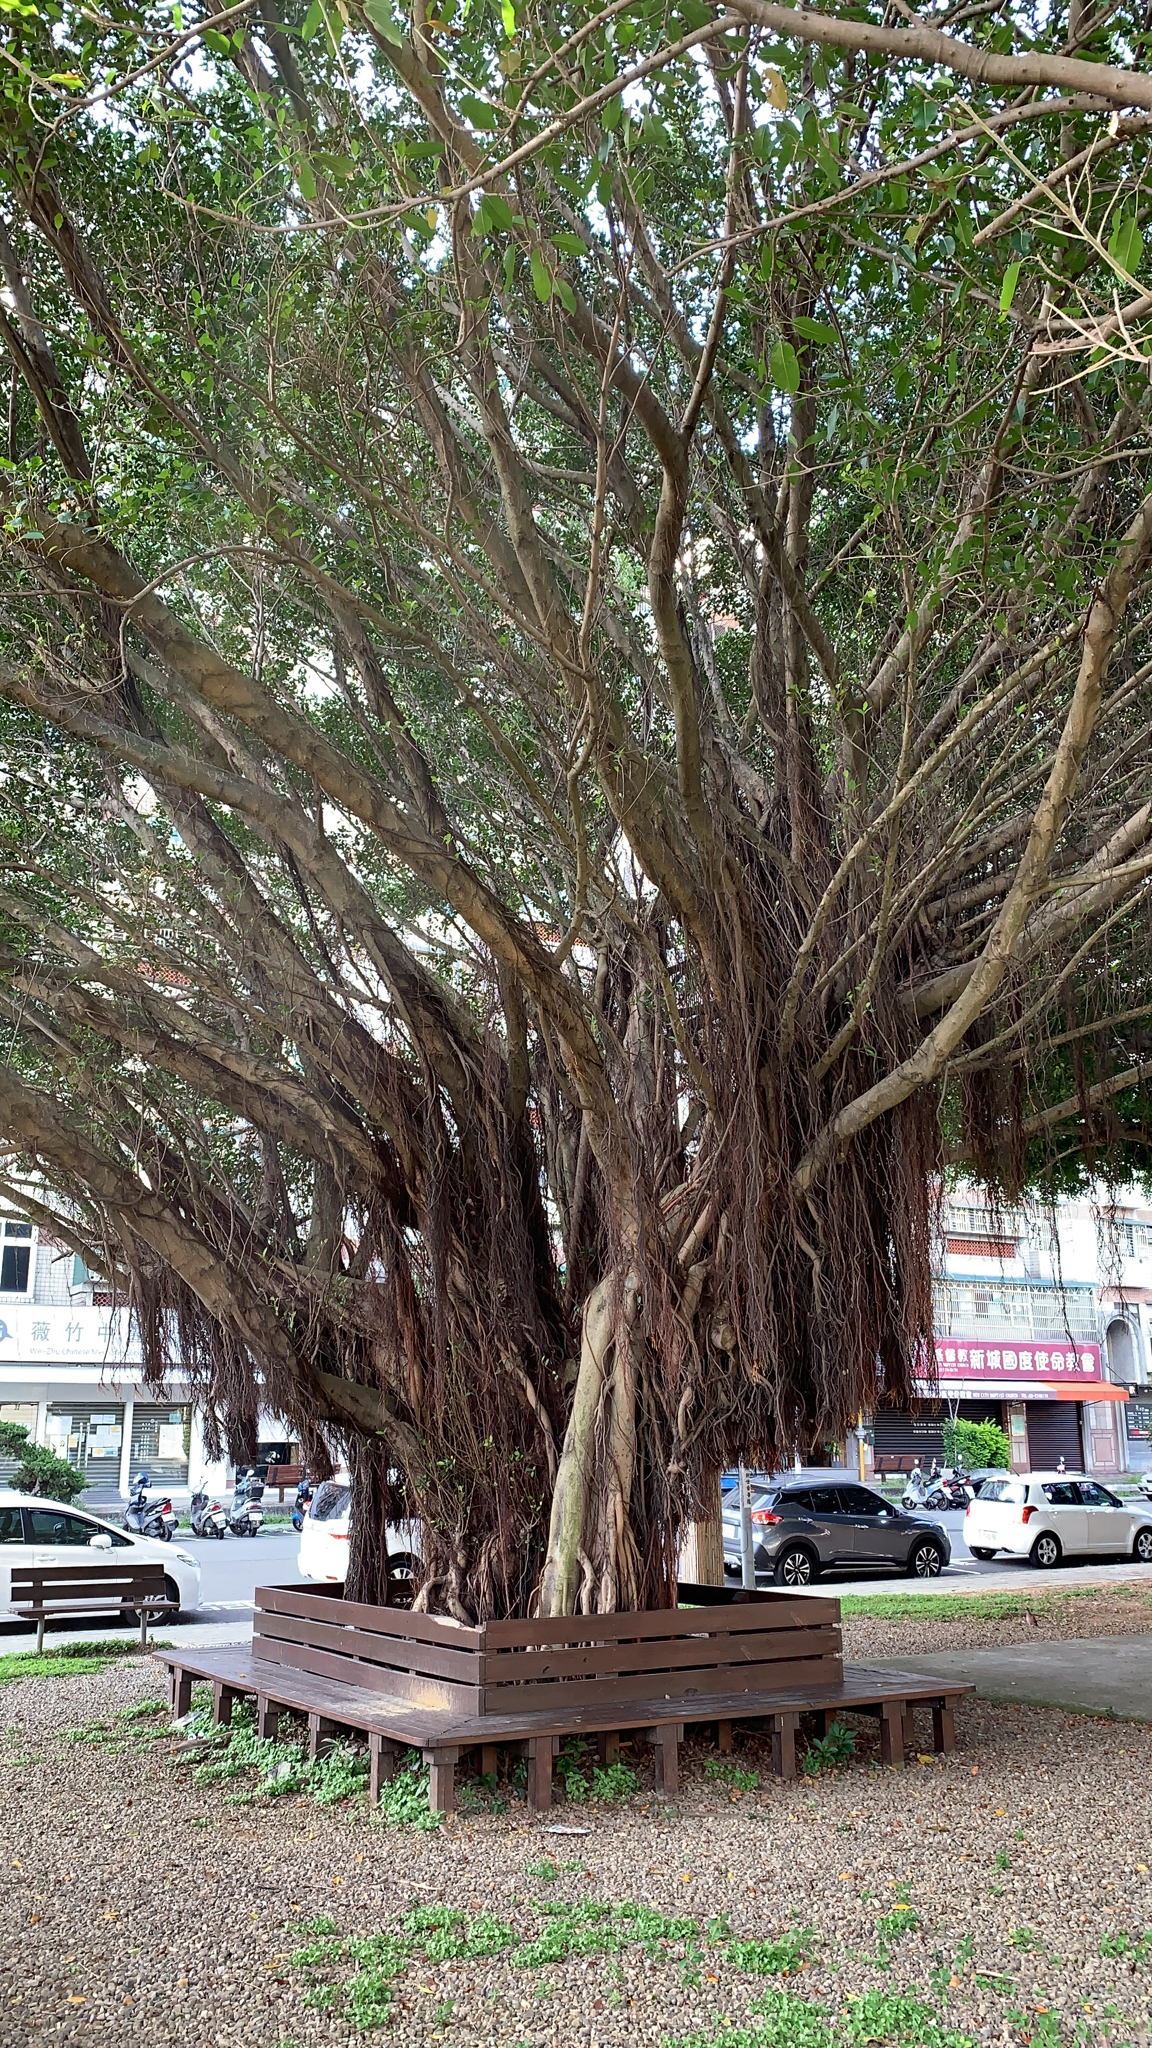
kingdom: Plantae
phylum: Tracheophyta
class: Magnoliopsida
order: Rosales
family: Moraceae
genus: Ficus
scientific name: Ficus microcarpa
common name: Chinese banyan
